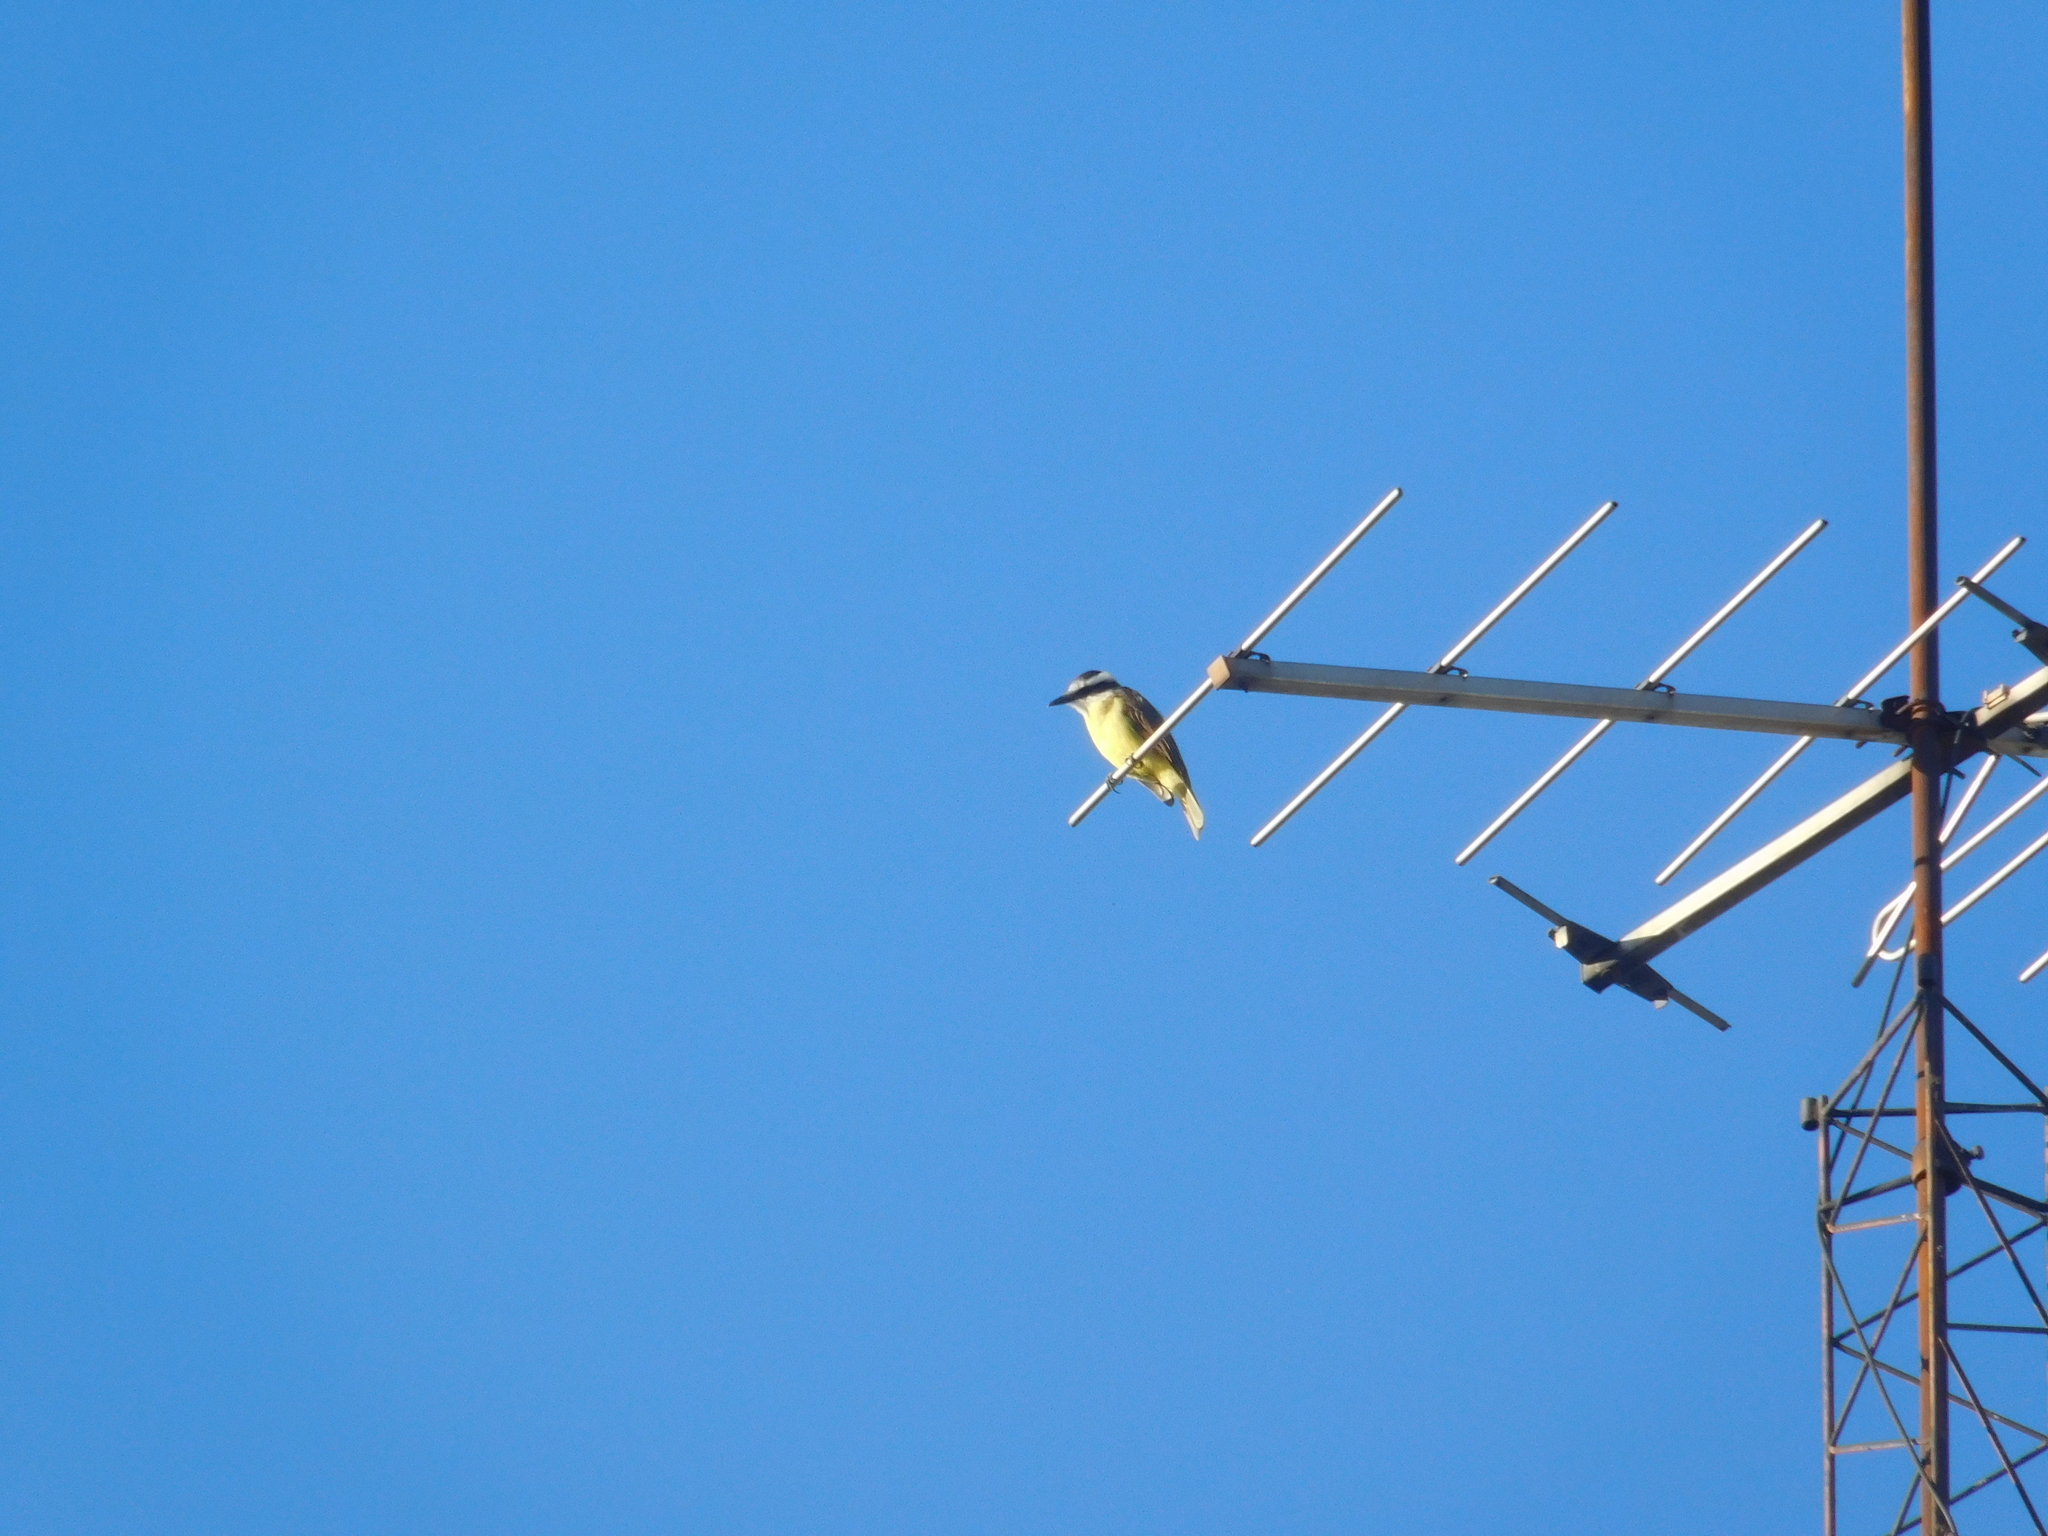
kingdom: Animalia
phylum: Chordata
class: Aves
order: Passeriformes
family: Tyrannidae
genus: Pitangus
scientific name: Pitangus sulphuratus
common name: Great kiskadee
